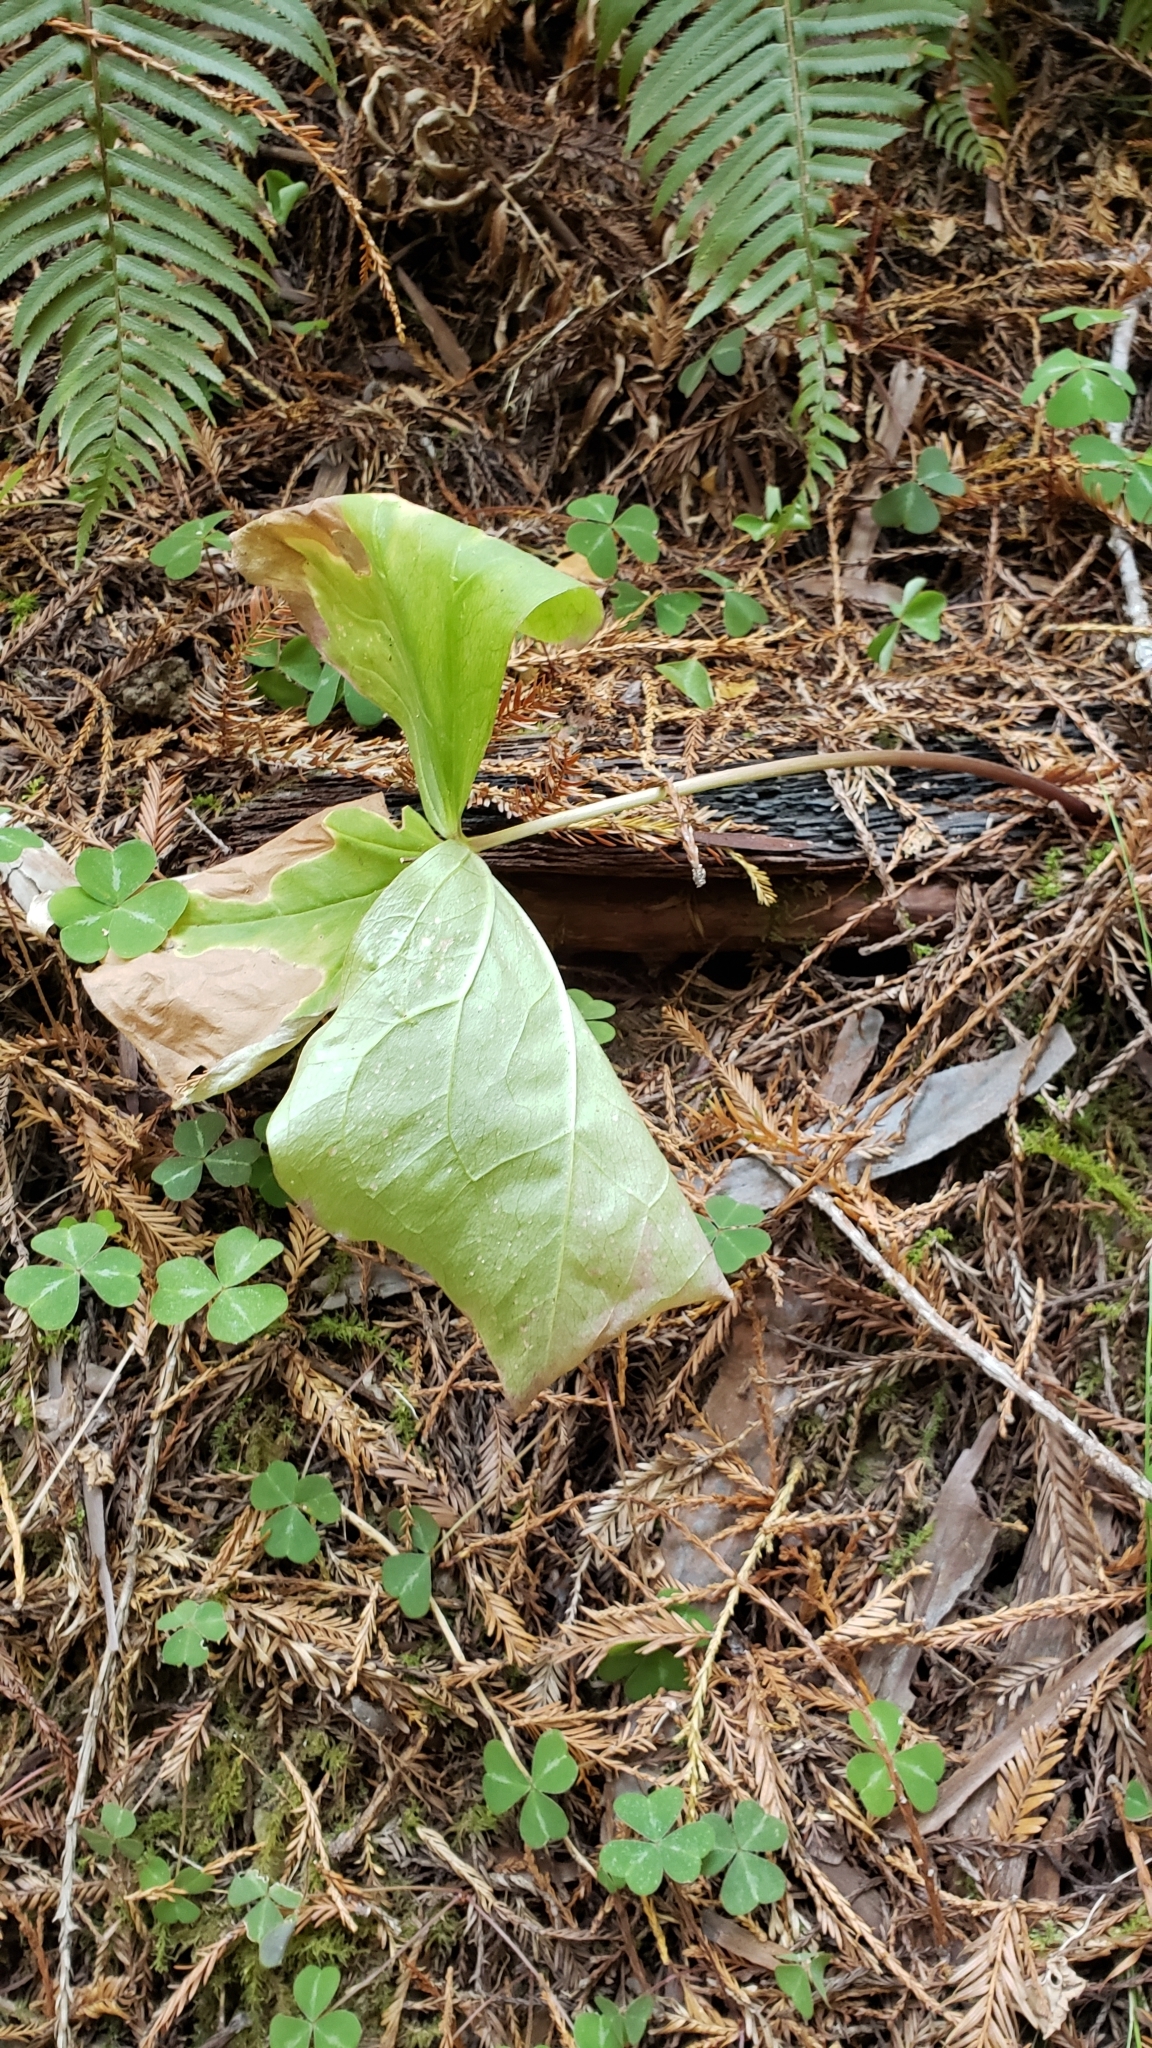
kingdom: Plantae
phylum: Tracheophyta
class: Liliopsida
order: Liliales
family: Melanthiaceae
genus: Trillium
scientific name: Trillium ovatum
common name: Pacific trillium
